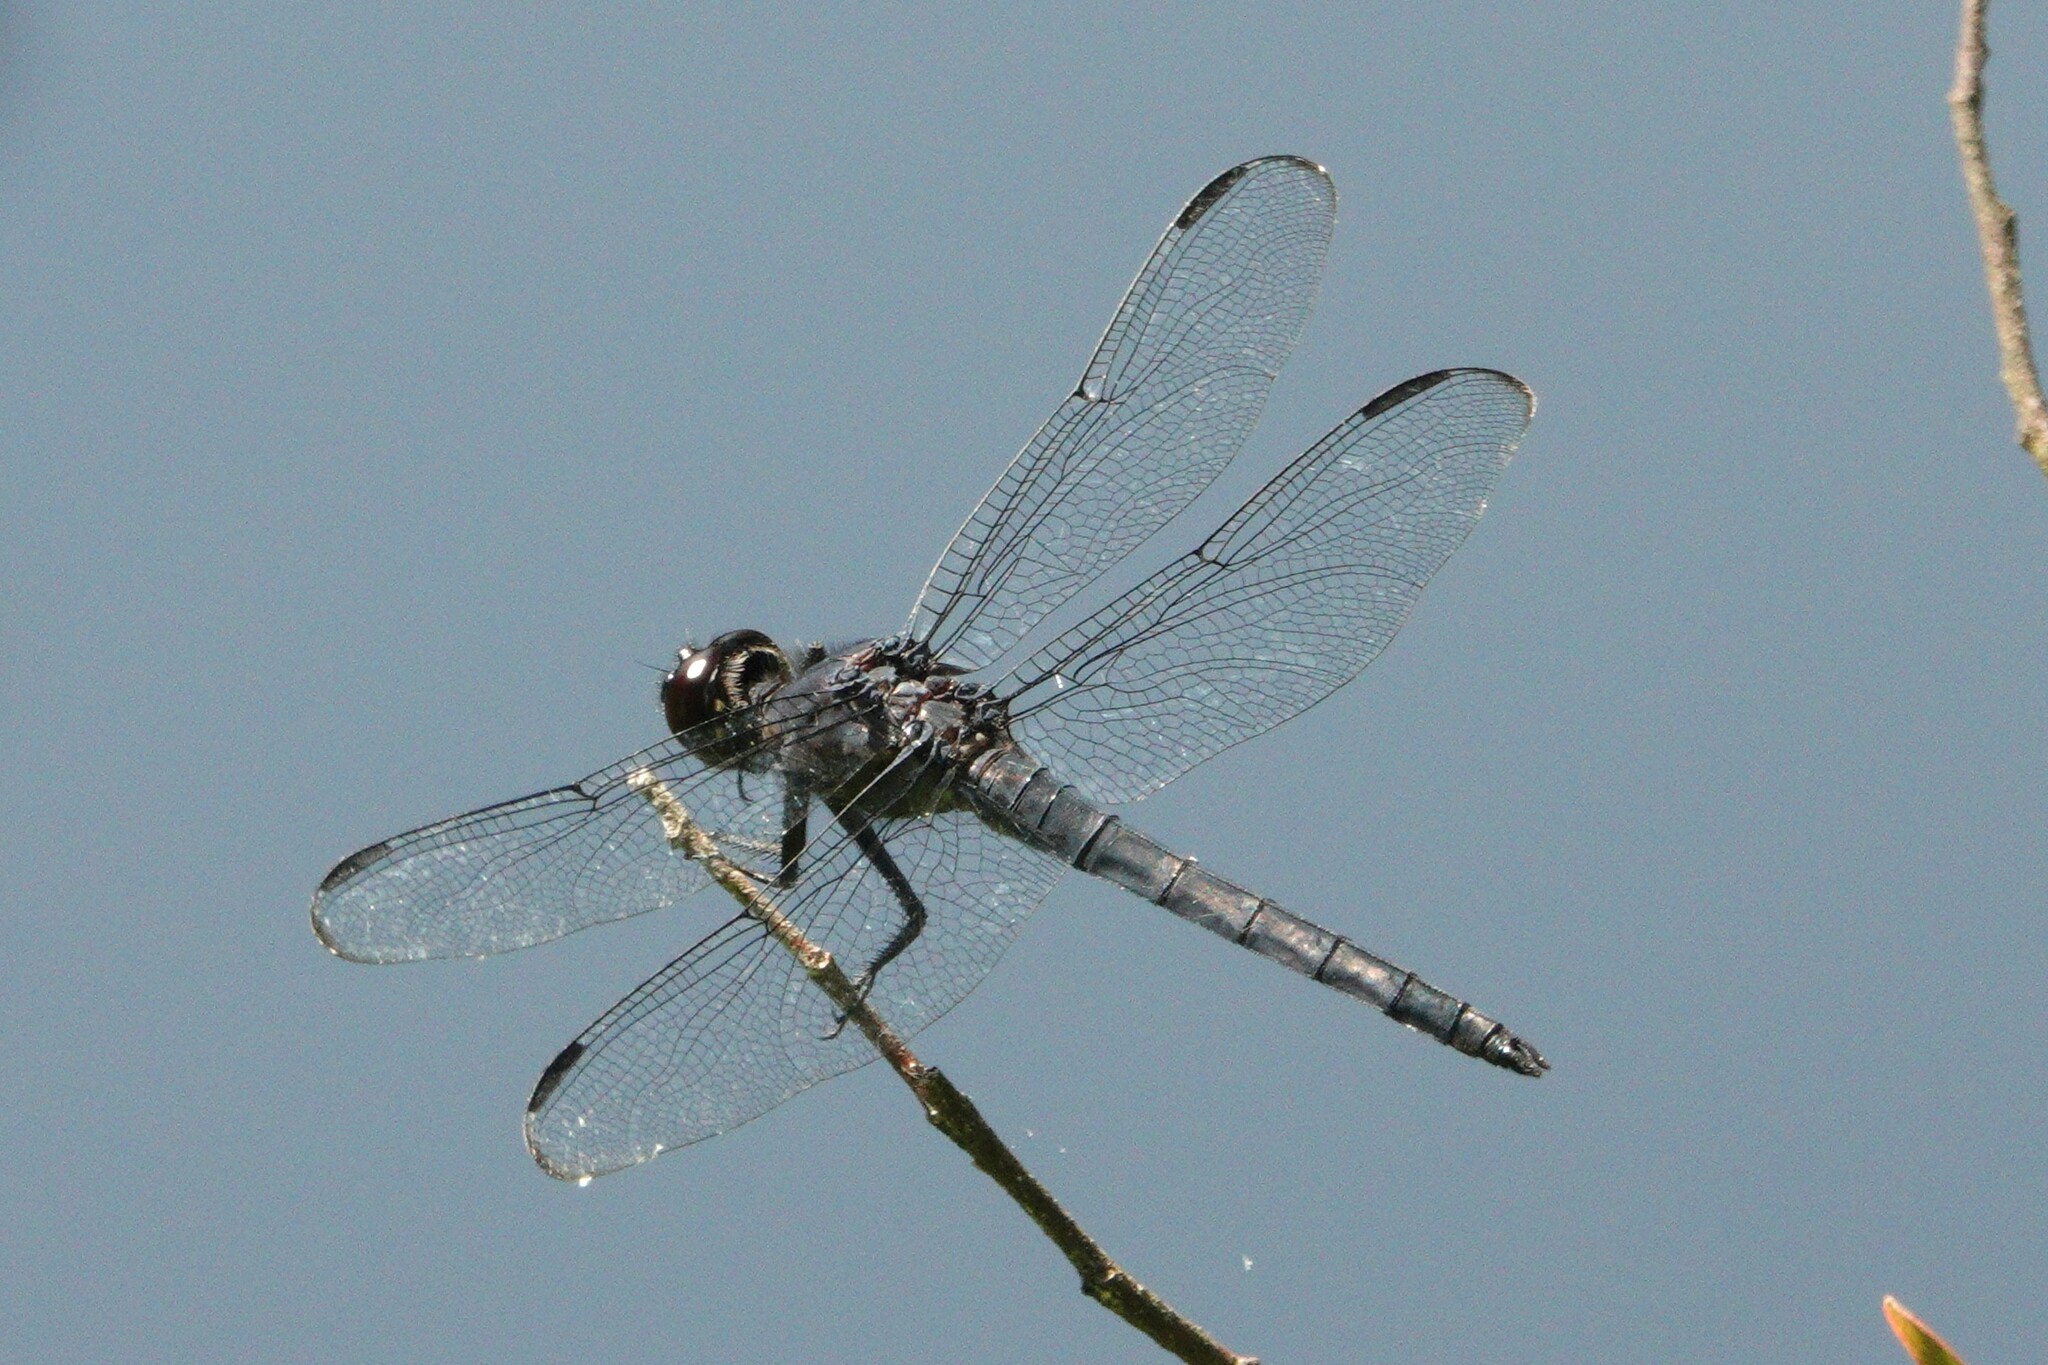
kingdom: Animalia
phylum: Arthropoda
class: Insecta
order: Odonata
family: Libellulidae
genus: Libellula
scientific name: Libellula incesta
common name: Slaty skimmer
